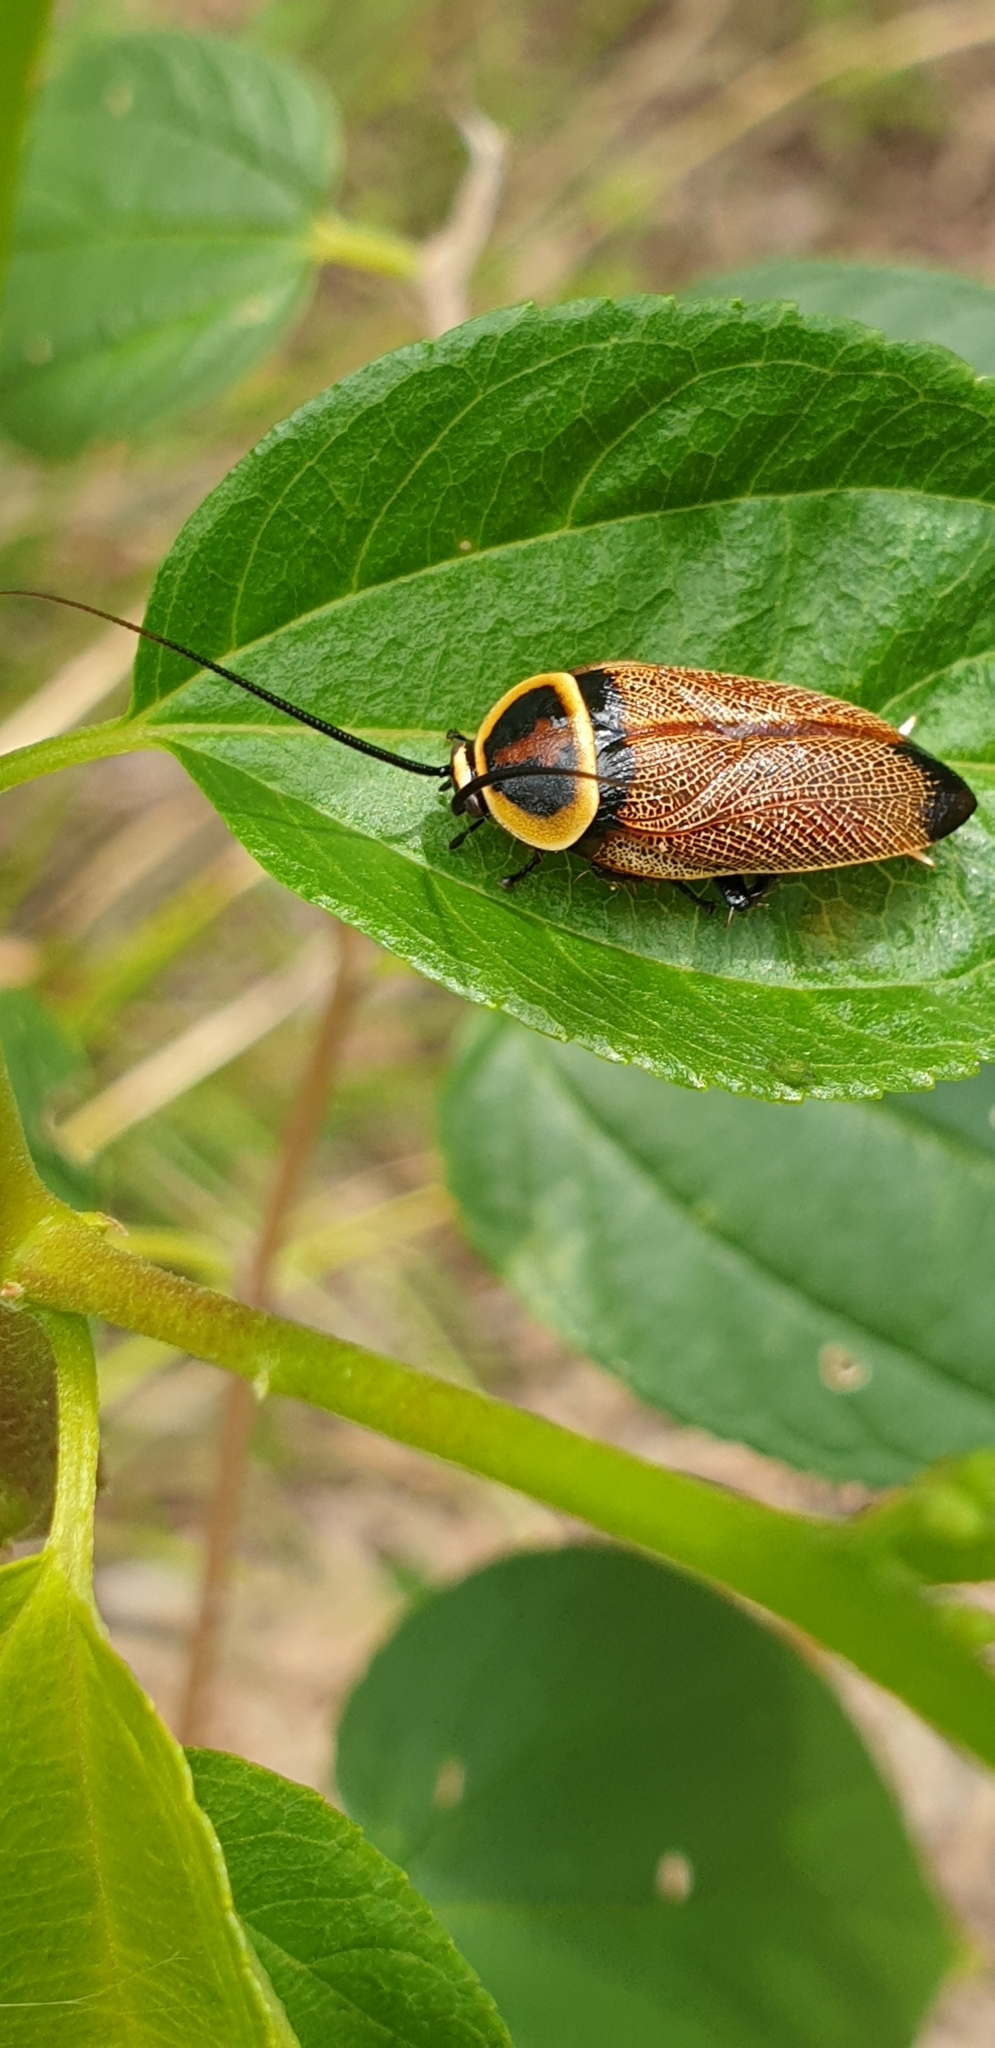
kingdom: Animalia
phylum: Arthropoda
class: Insecta
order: Blattodea
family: Ectobiidae
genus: Ellipsidion
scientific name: Ellipsidion reticulatum
